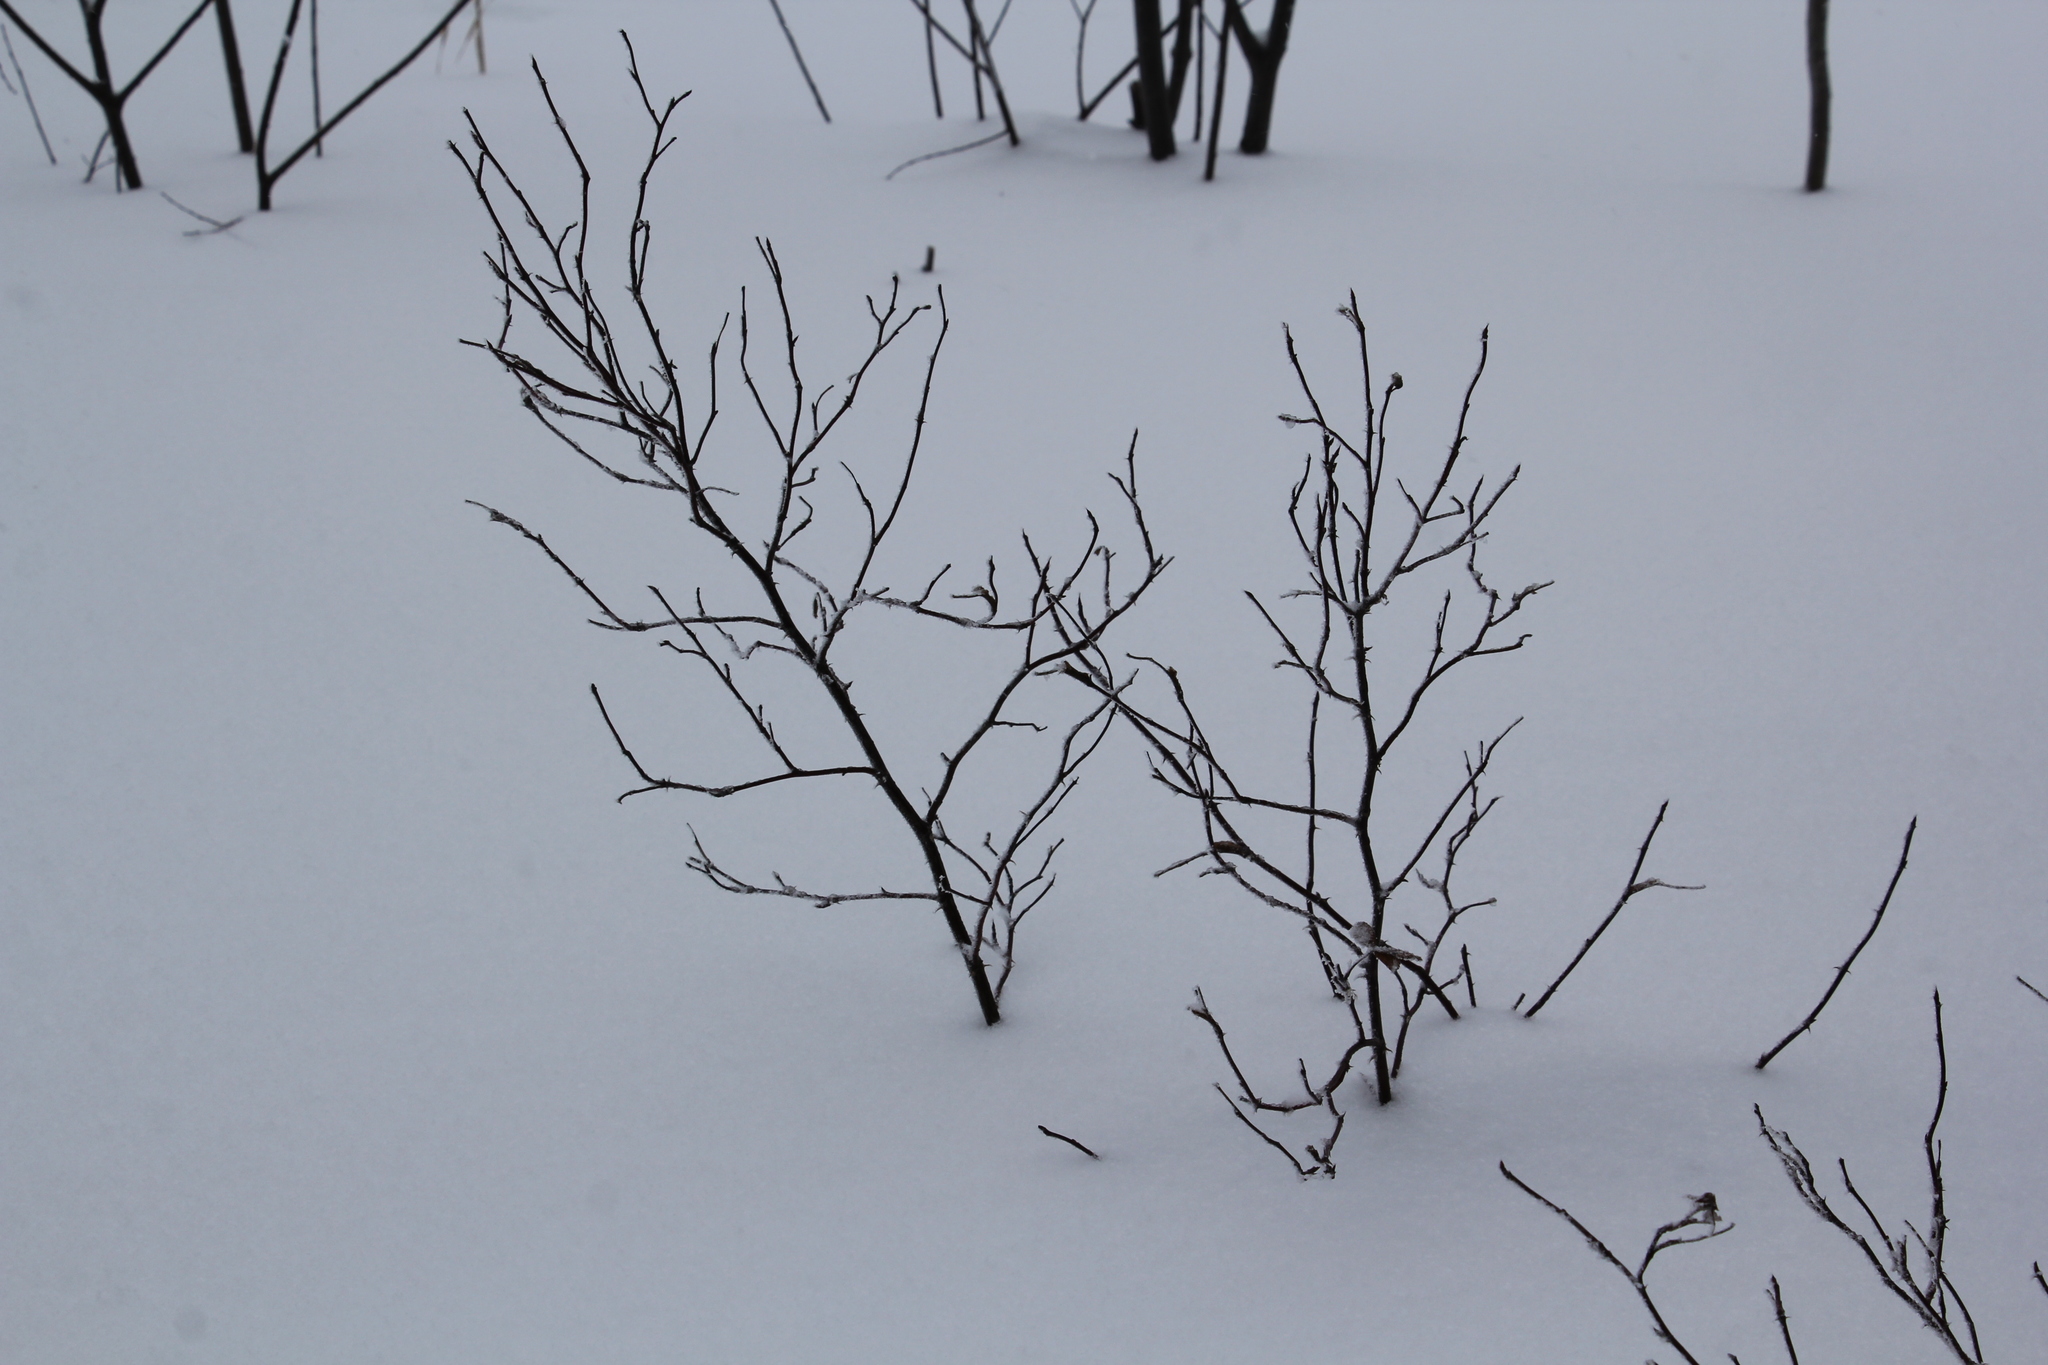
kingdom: Plantae
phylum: Tracheophyta
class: Magnoliopsida
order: Rosales
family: Rosaceae
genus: Rosa
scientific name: Rosa majalis
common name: Cinnamon rose
